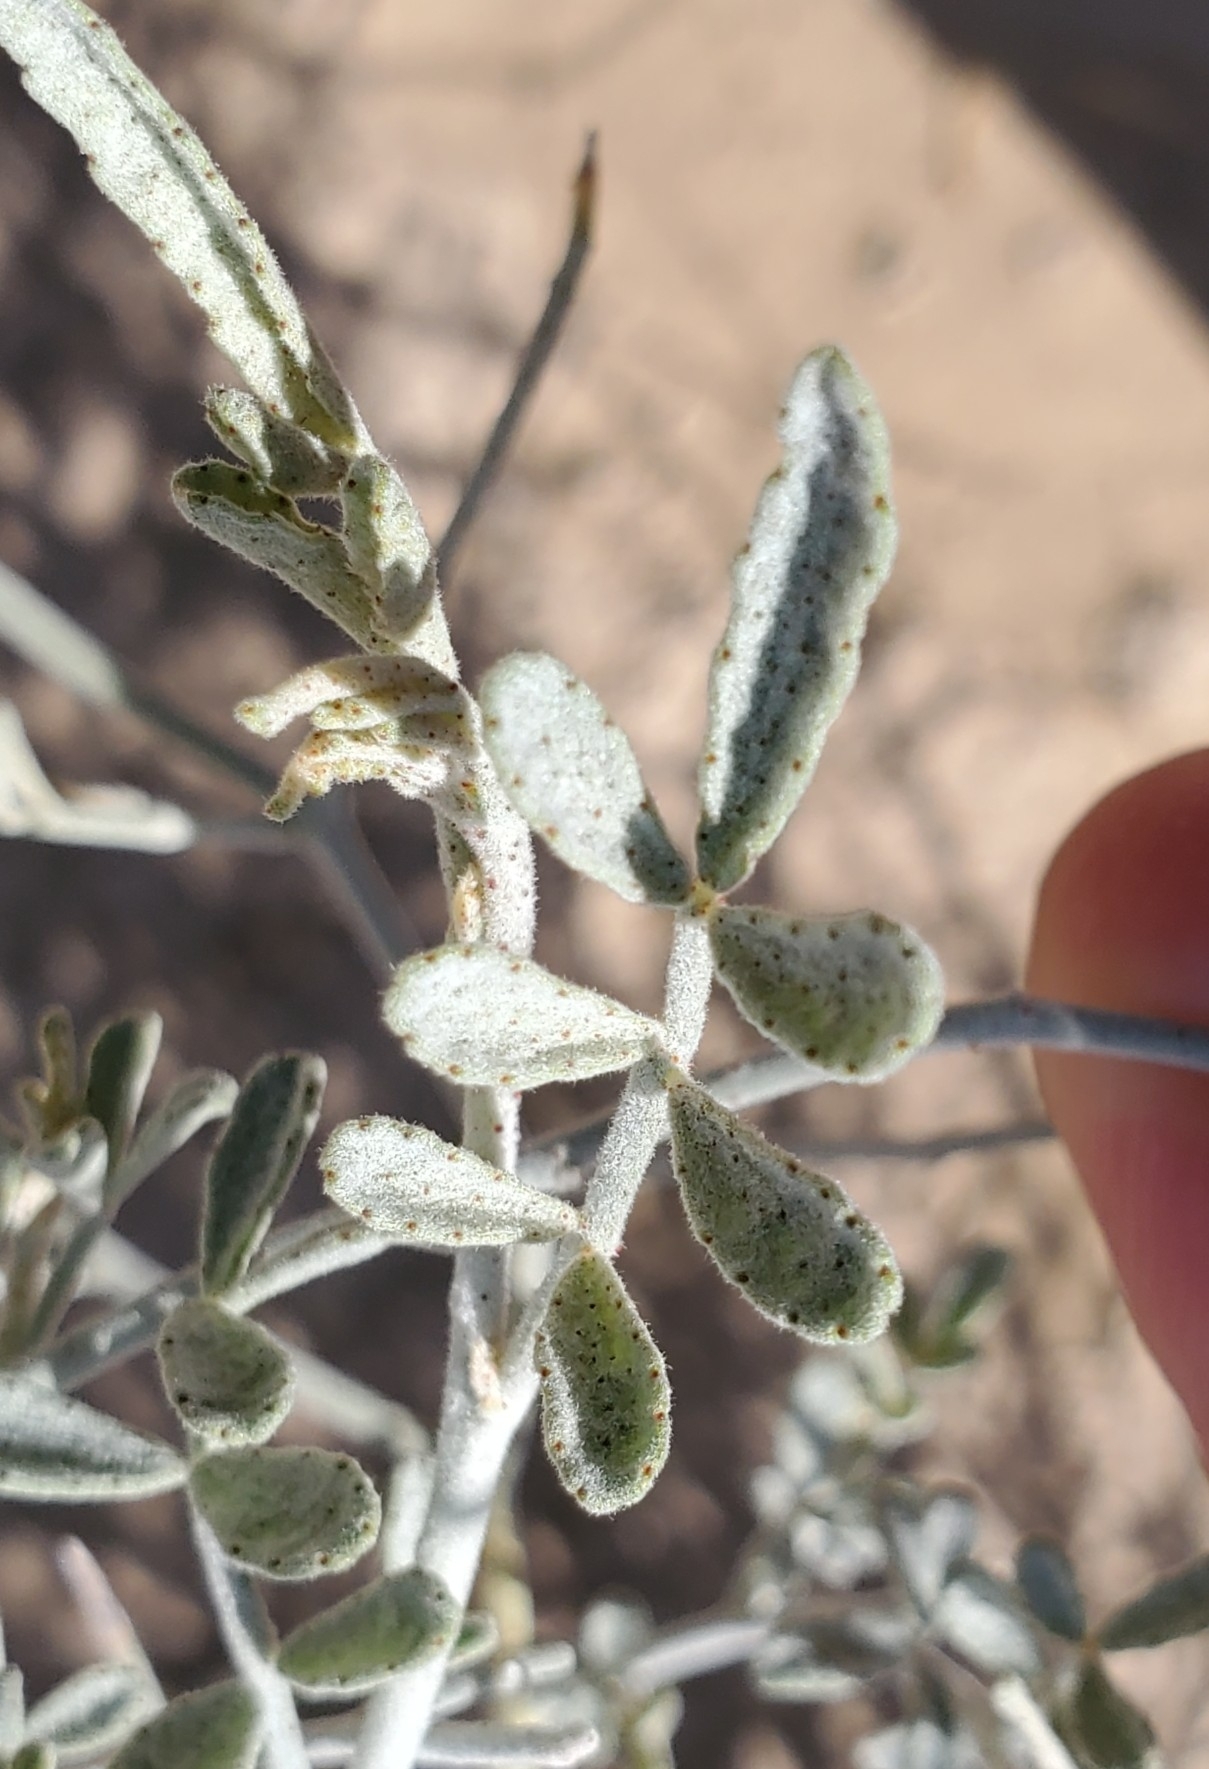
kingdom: Plantae
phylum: Tracheophyta
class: Magnoliopsida
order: Fabales
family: Fabaceae
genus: Psorothamnus
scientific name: Psorothamnus emoryi
